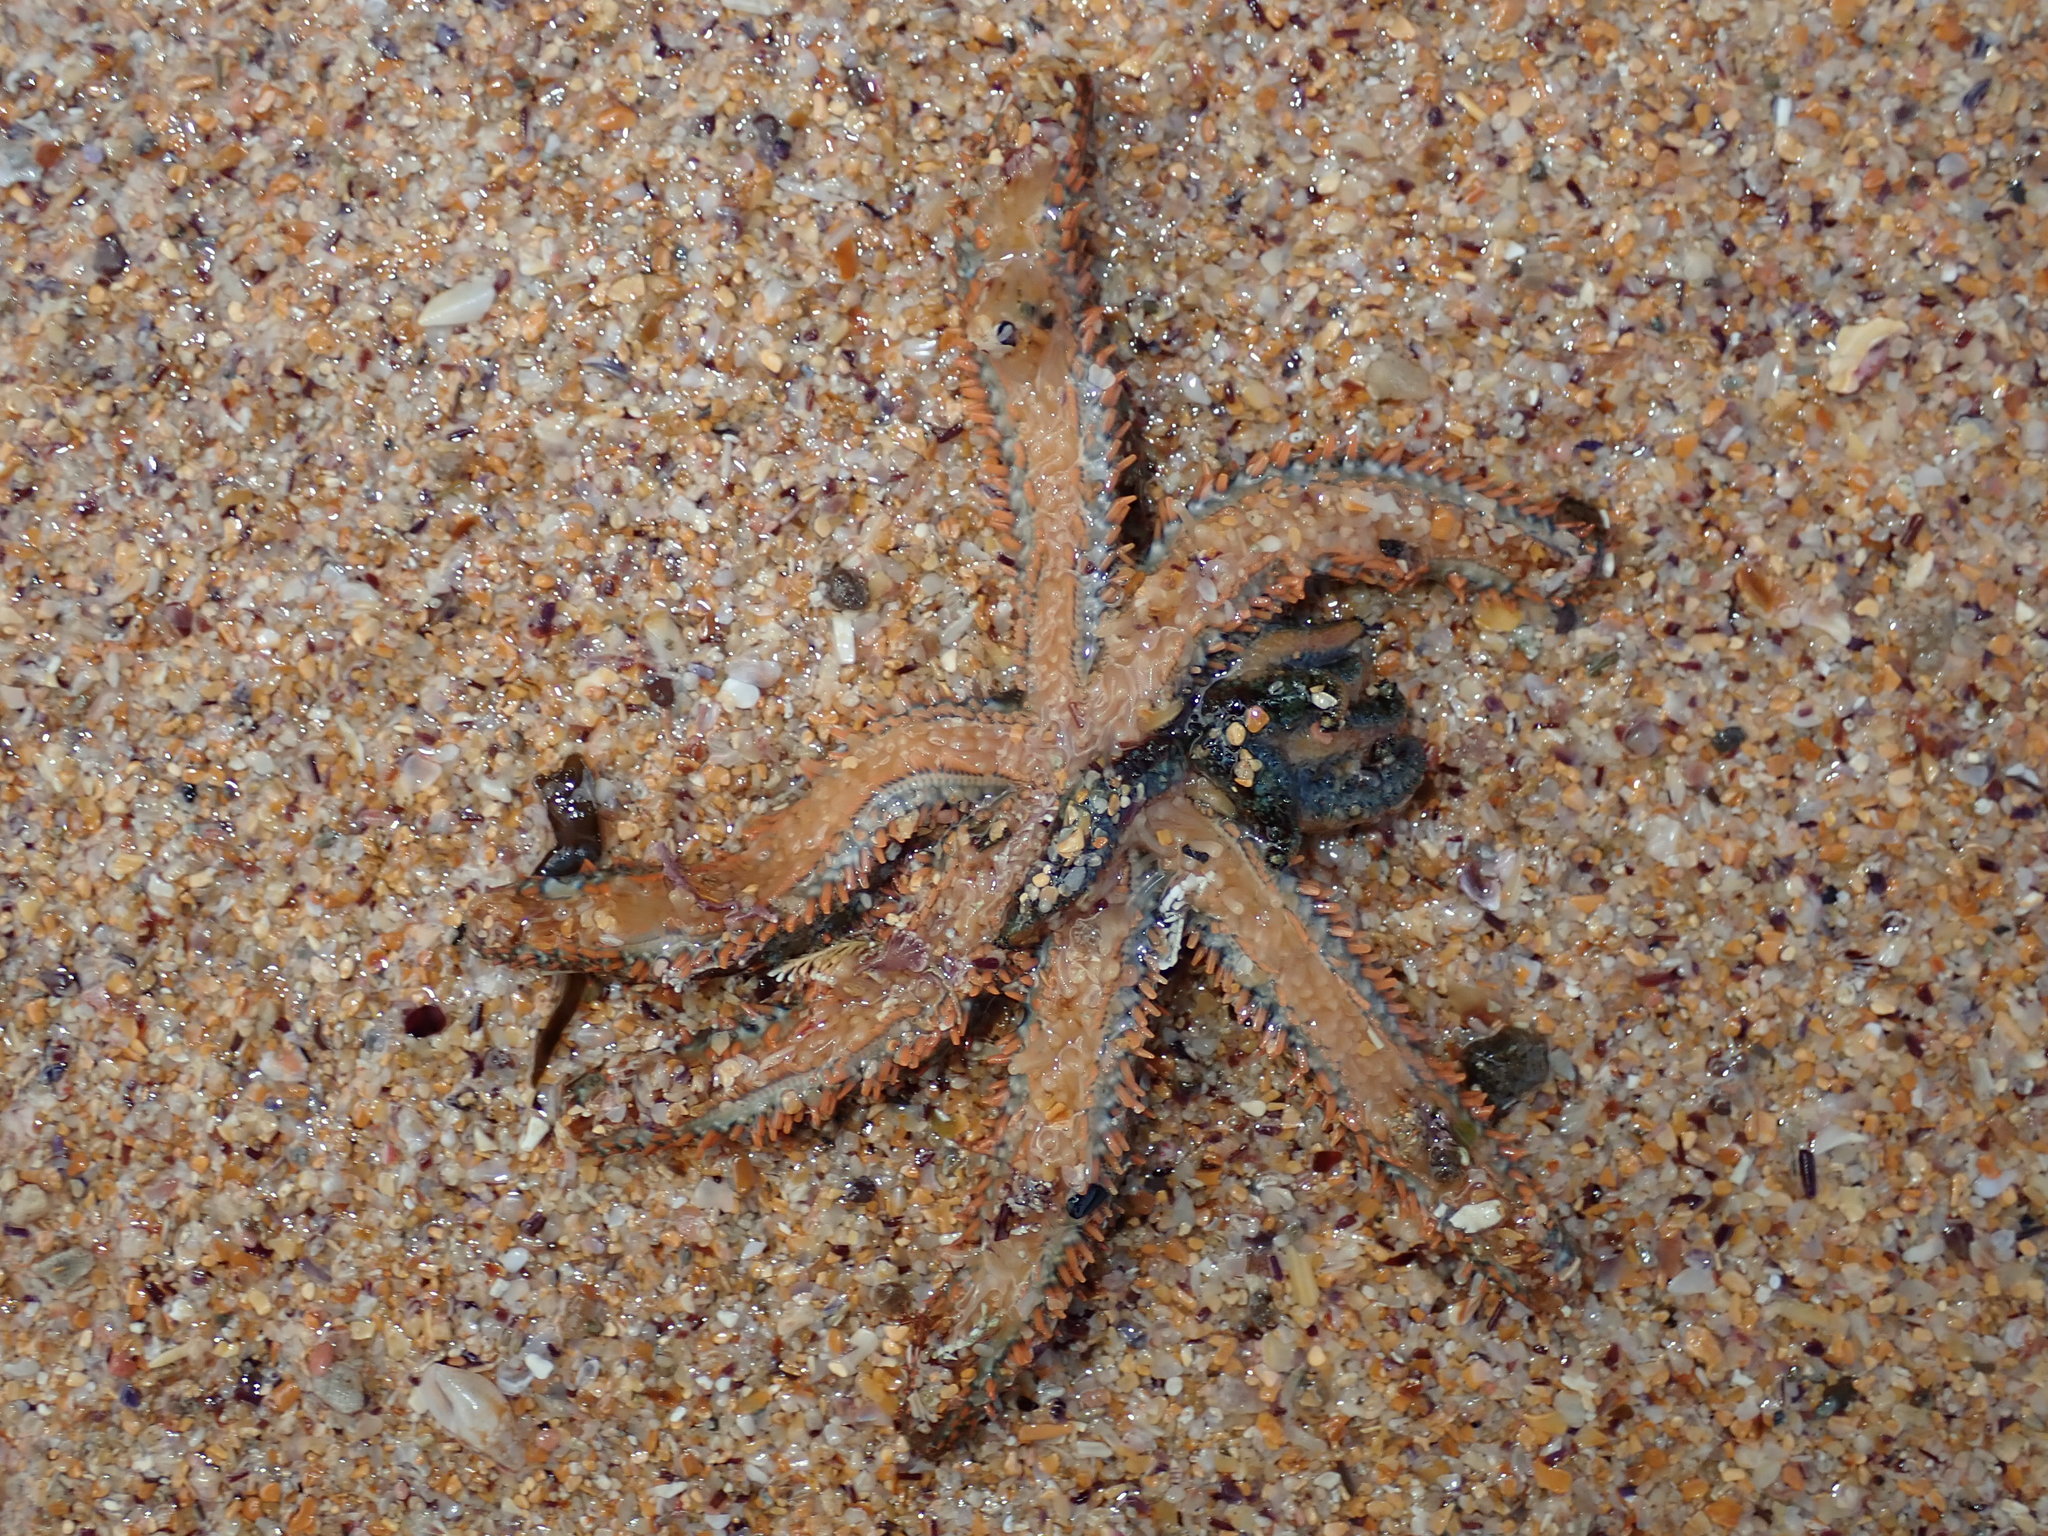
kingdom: Animalia
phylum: Echinodermata
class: Asteroidea
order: Forcipulatida
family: Asteriidae
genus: Coscinasterias
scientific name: Coscinasterias muricata
